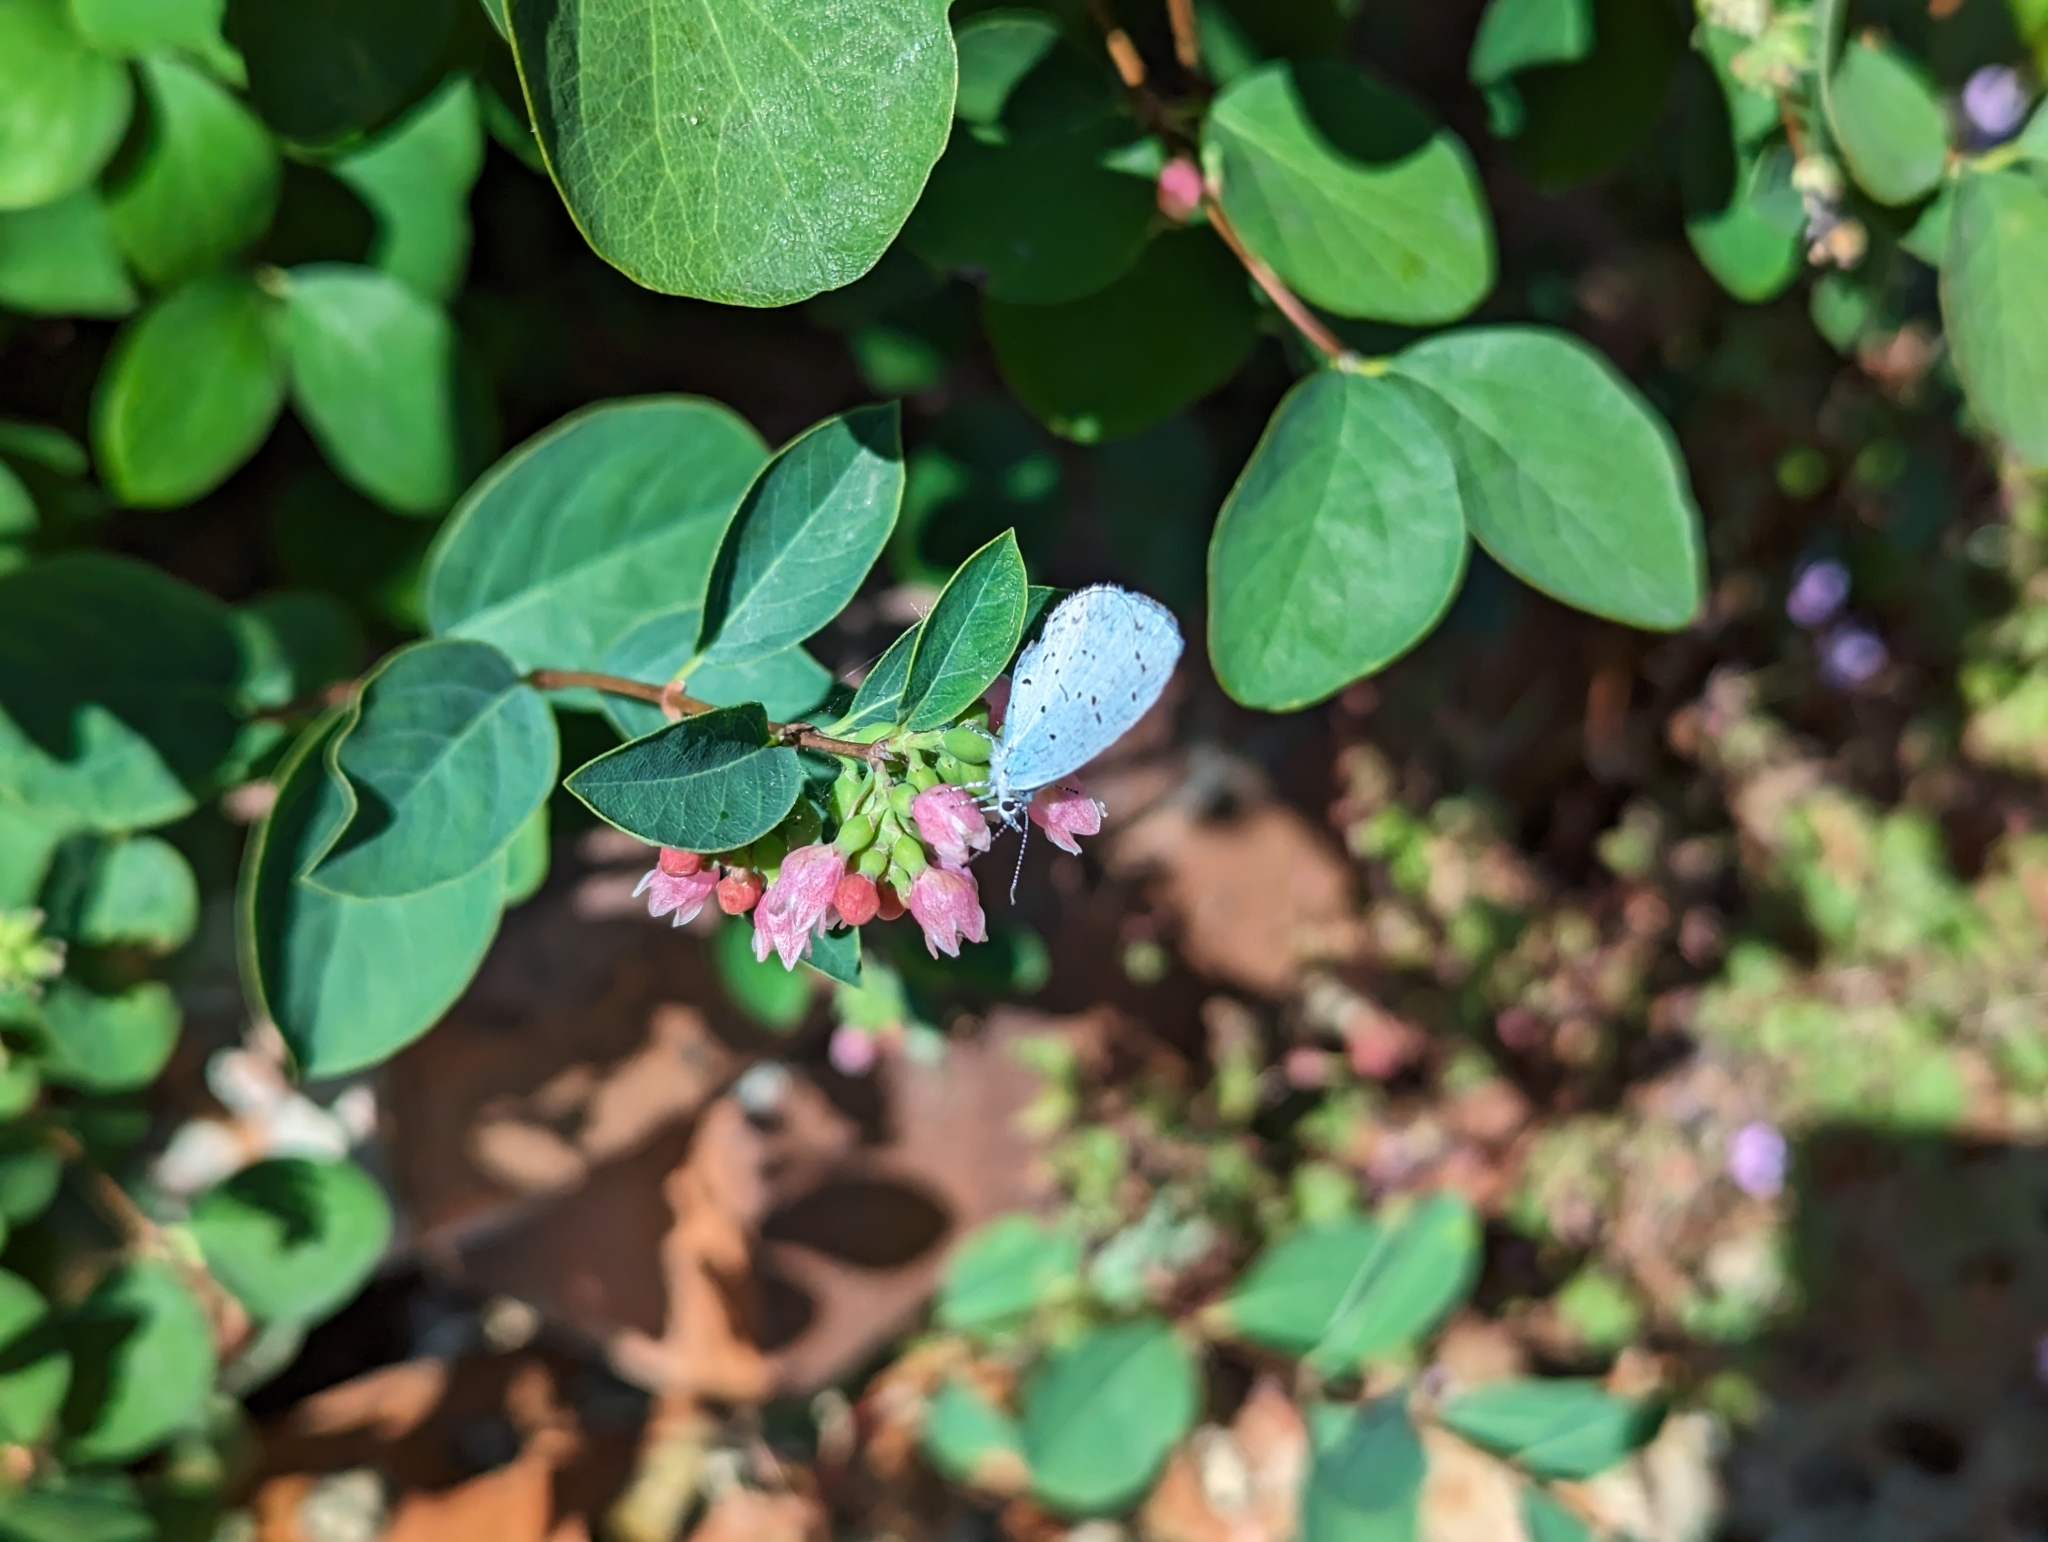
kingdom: Animalia
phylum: Arthropoda
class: Insecta
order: Lepidoptera
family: Lycaenidae
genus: Celastrina
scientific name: Celastrina argiolus
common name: Holly blue
